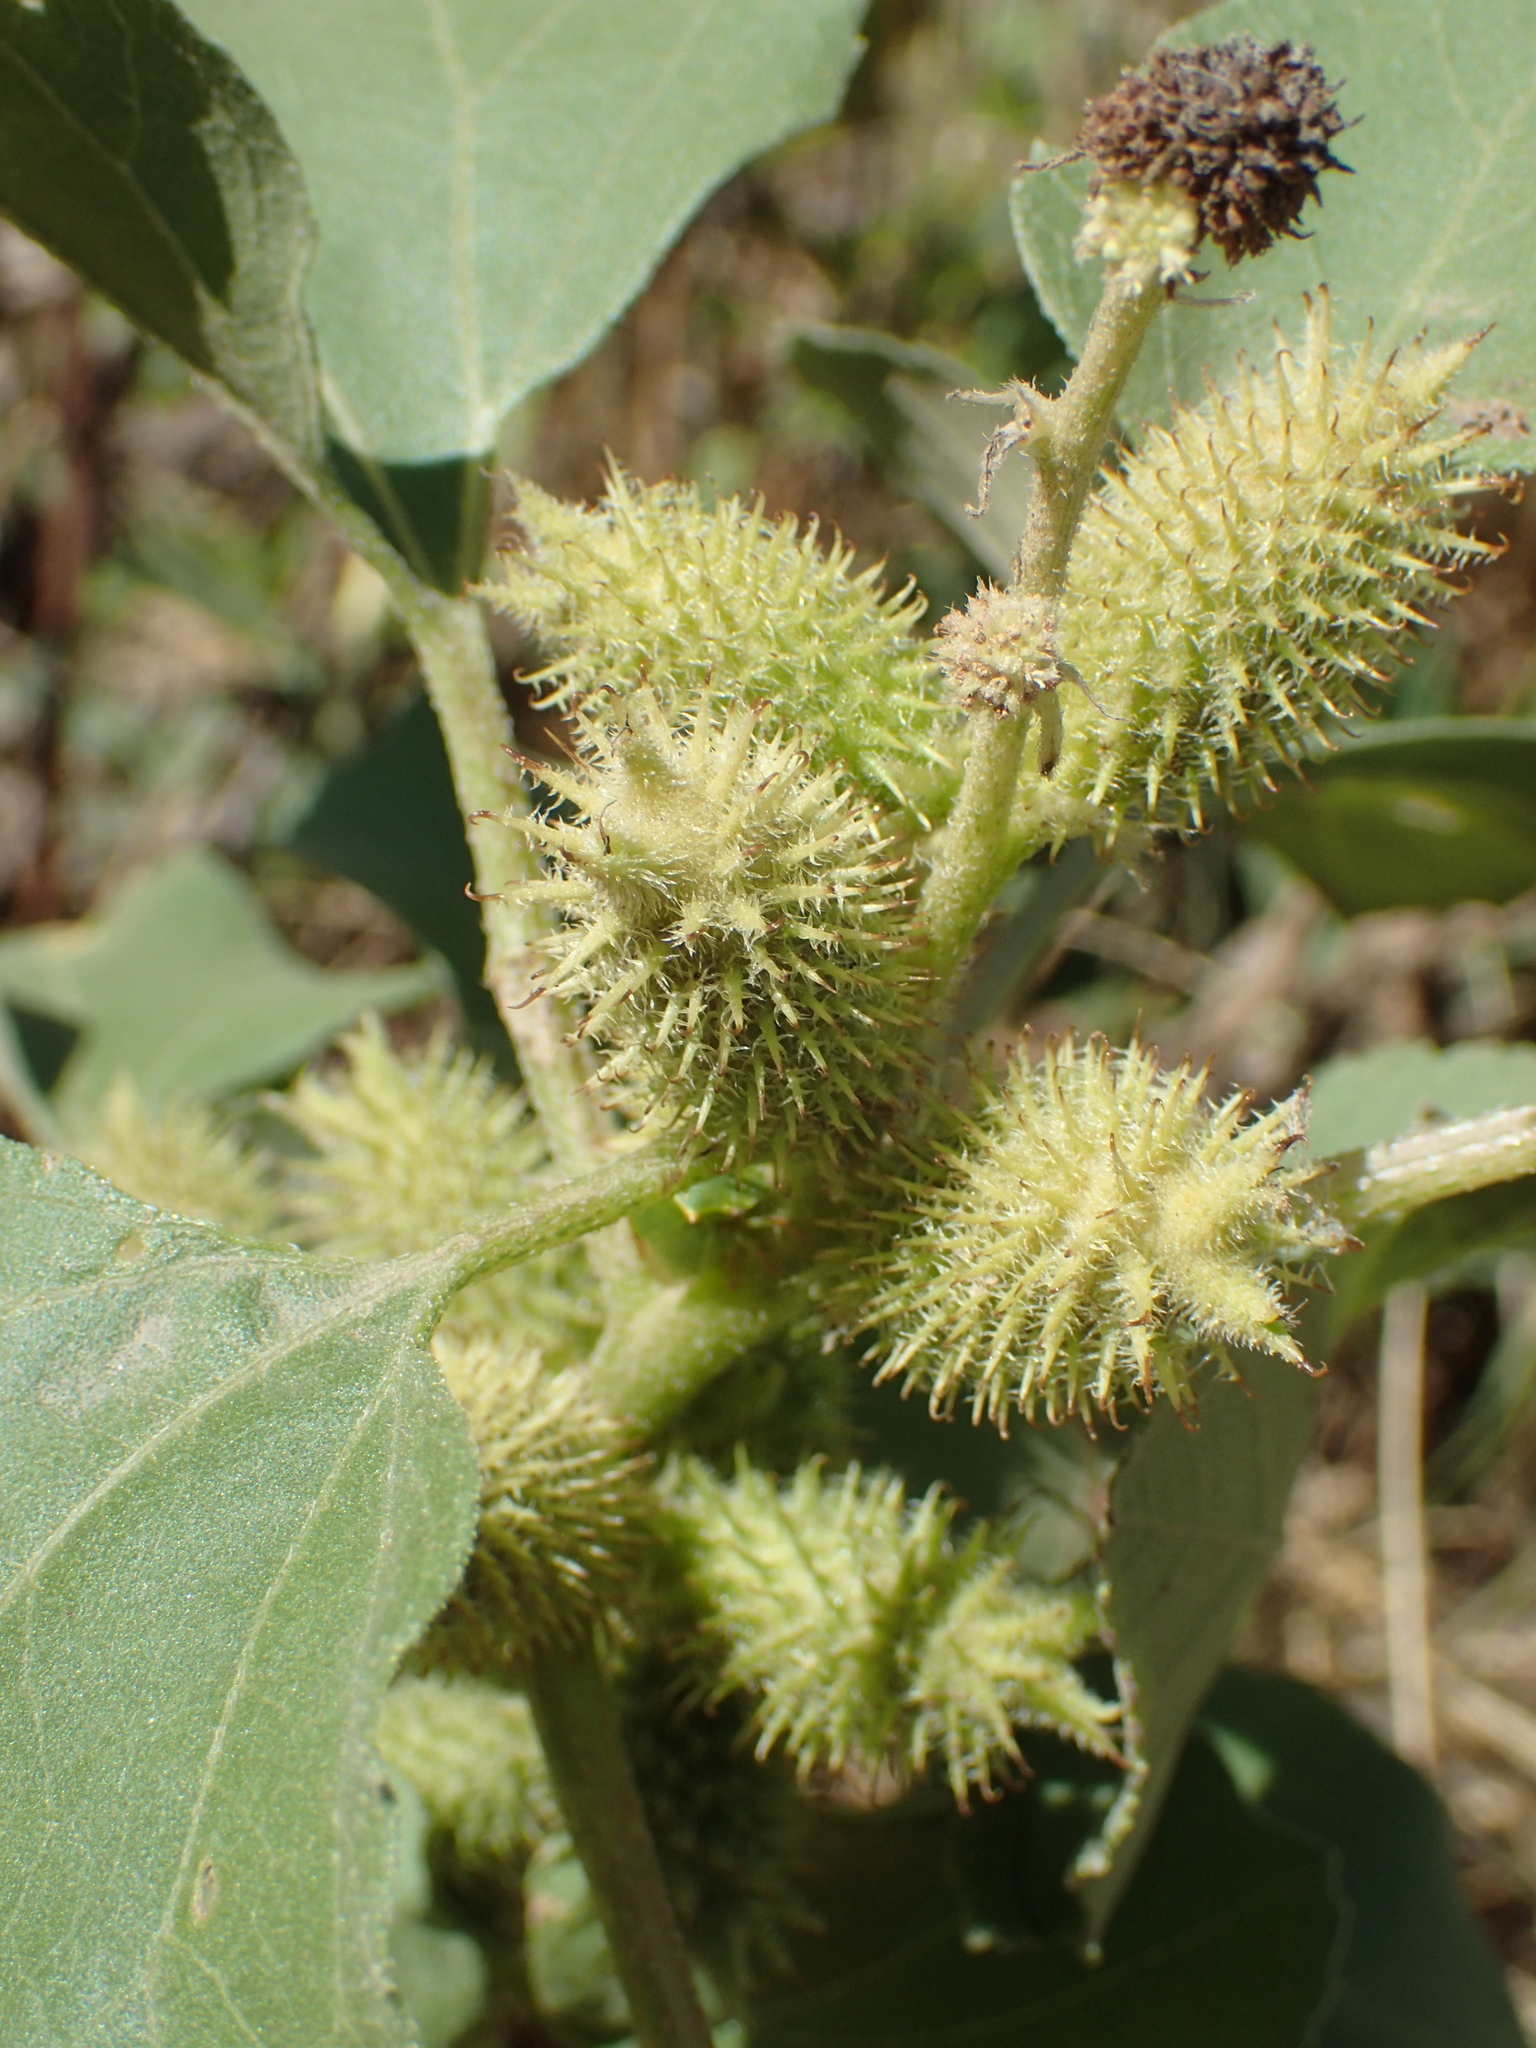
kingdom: Plantae
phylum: Tracheophyta
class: Magnoliopsida
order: Asterales
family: Asteraceae
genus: Xanthium
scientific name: Xanthium strumarium
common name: Rough cocklebur
